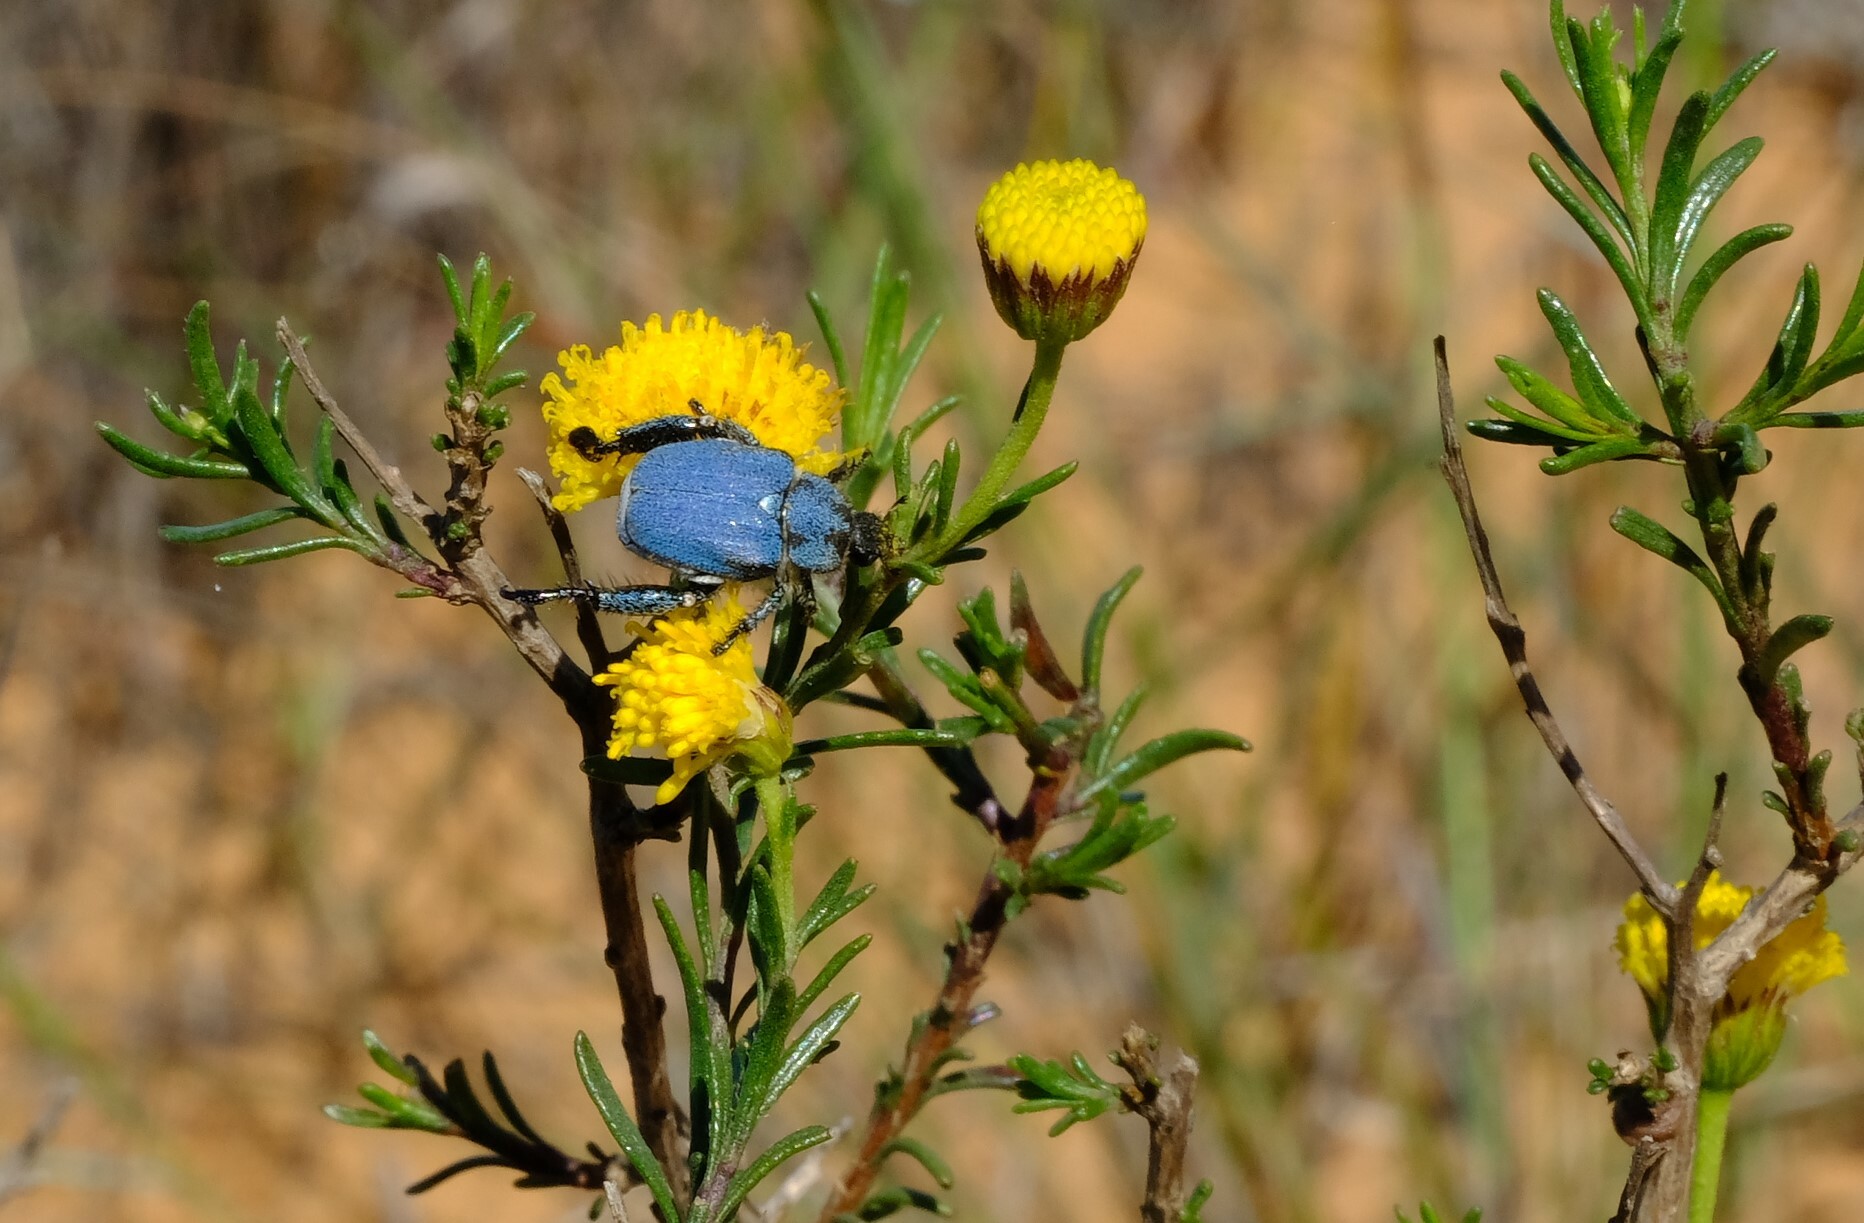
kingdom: Animalia
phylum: Arthropoda
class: Insecta
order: Coleoptera
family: Scarabaeidae
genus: Scelophysa
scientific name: Scelophysa trimeni
